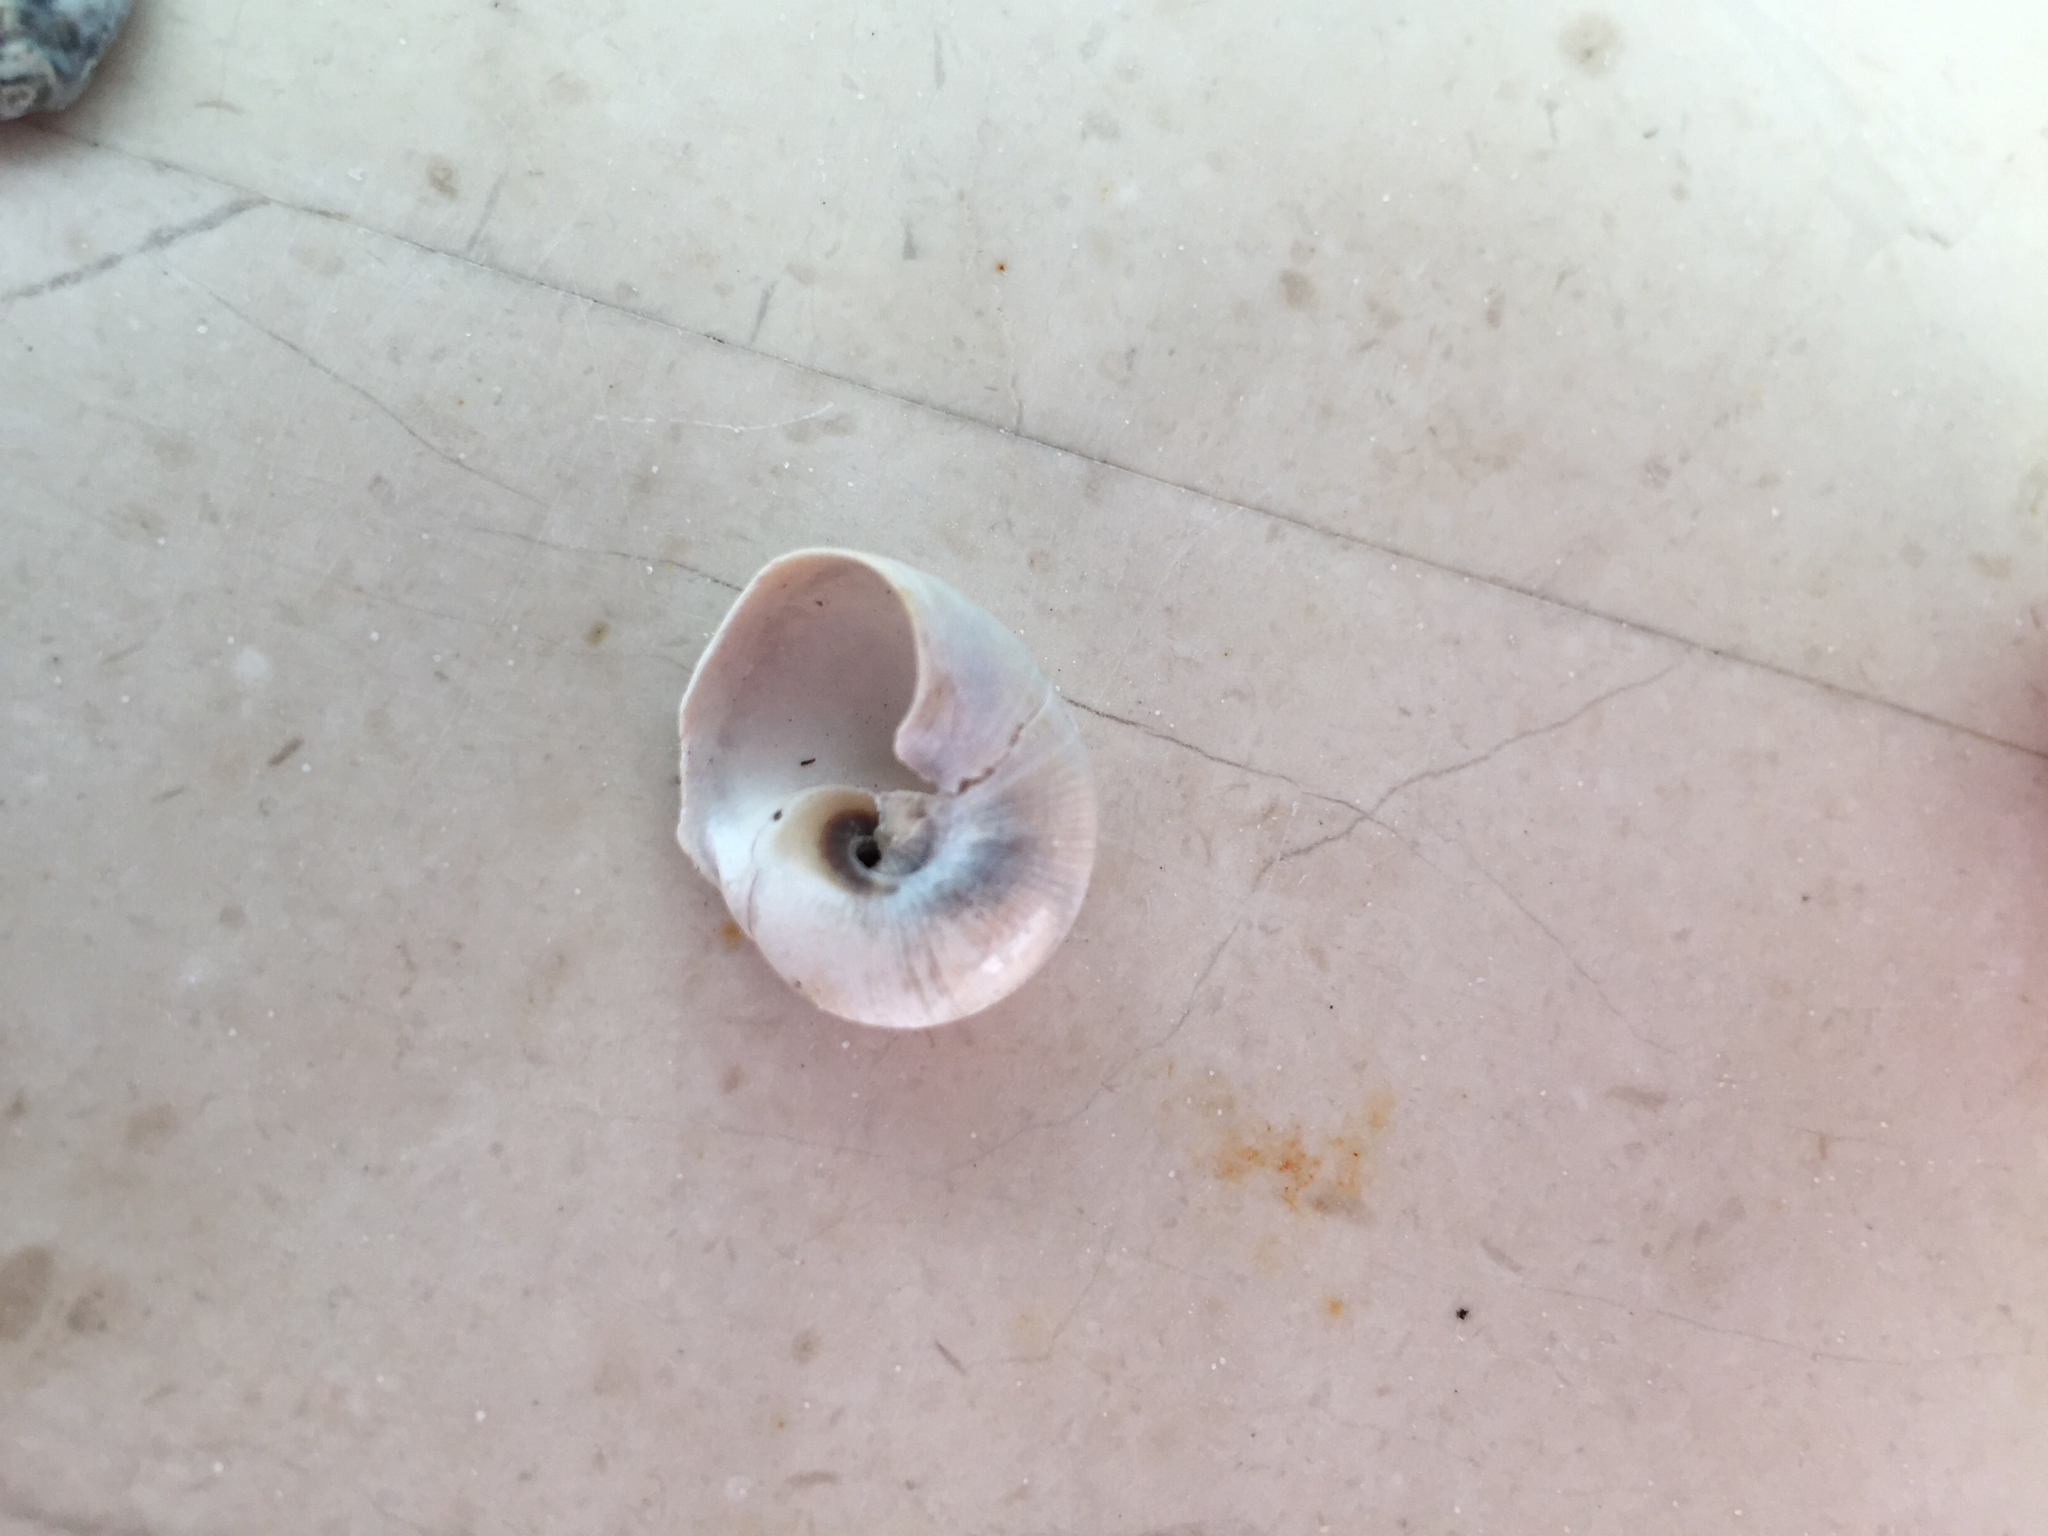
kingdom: Animalia
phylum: Mollusca
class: Gastropoda
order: Littorinimorpha
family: Naticidae
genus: Neverita
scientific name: Neverita duplicata
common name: Lobed moonsnail
